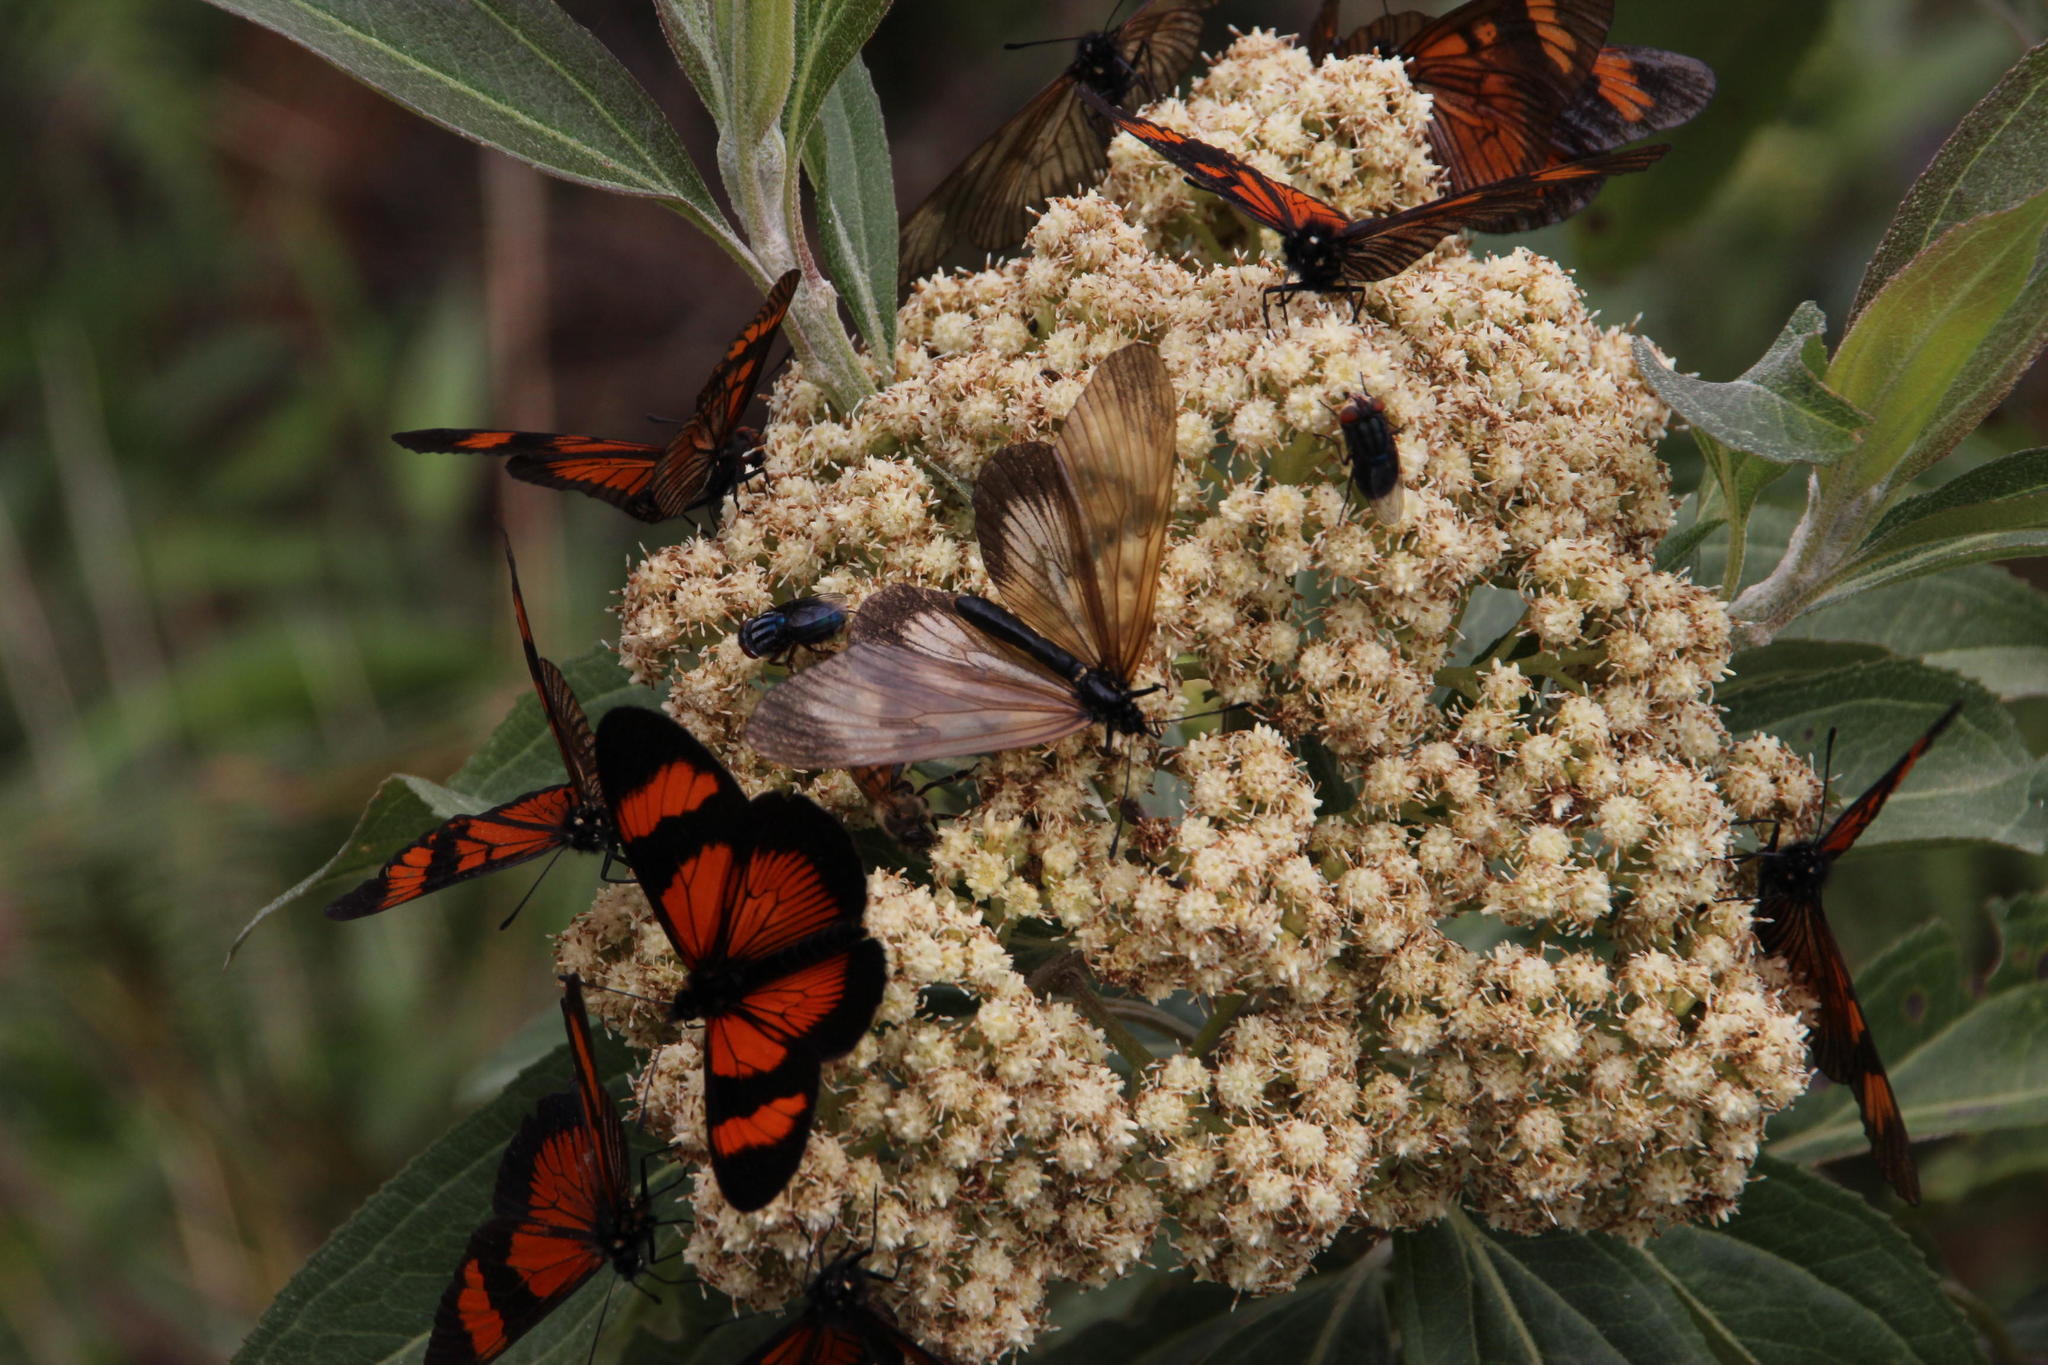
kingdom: Animalia
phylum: Arthropoda
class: Insecta
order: Diptera
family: Calliphoridae
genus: Cochliomyia
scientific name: Cochliomyia macellaria
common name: Secondary screwworm
